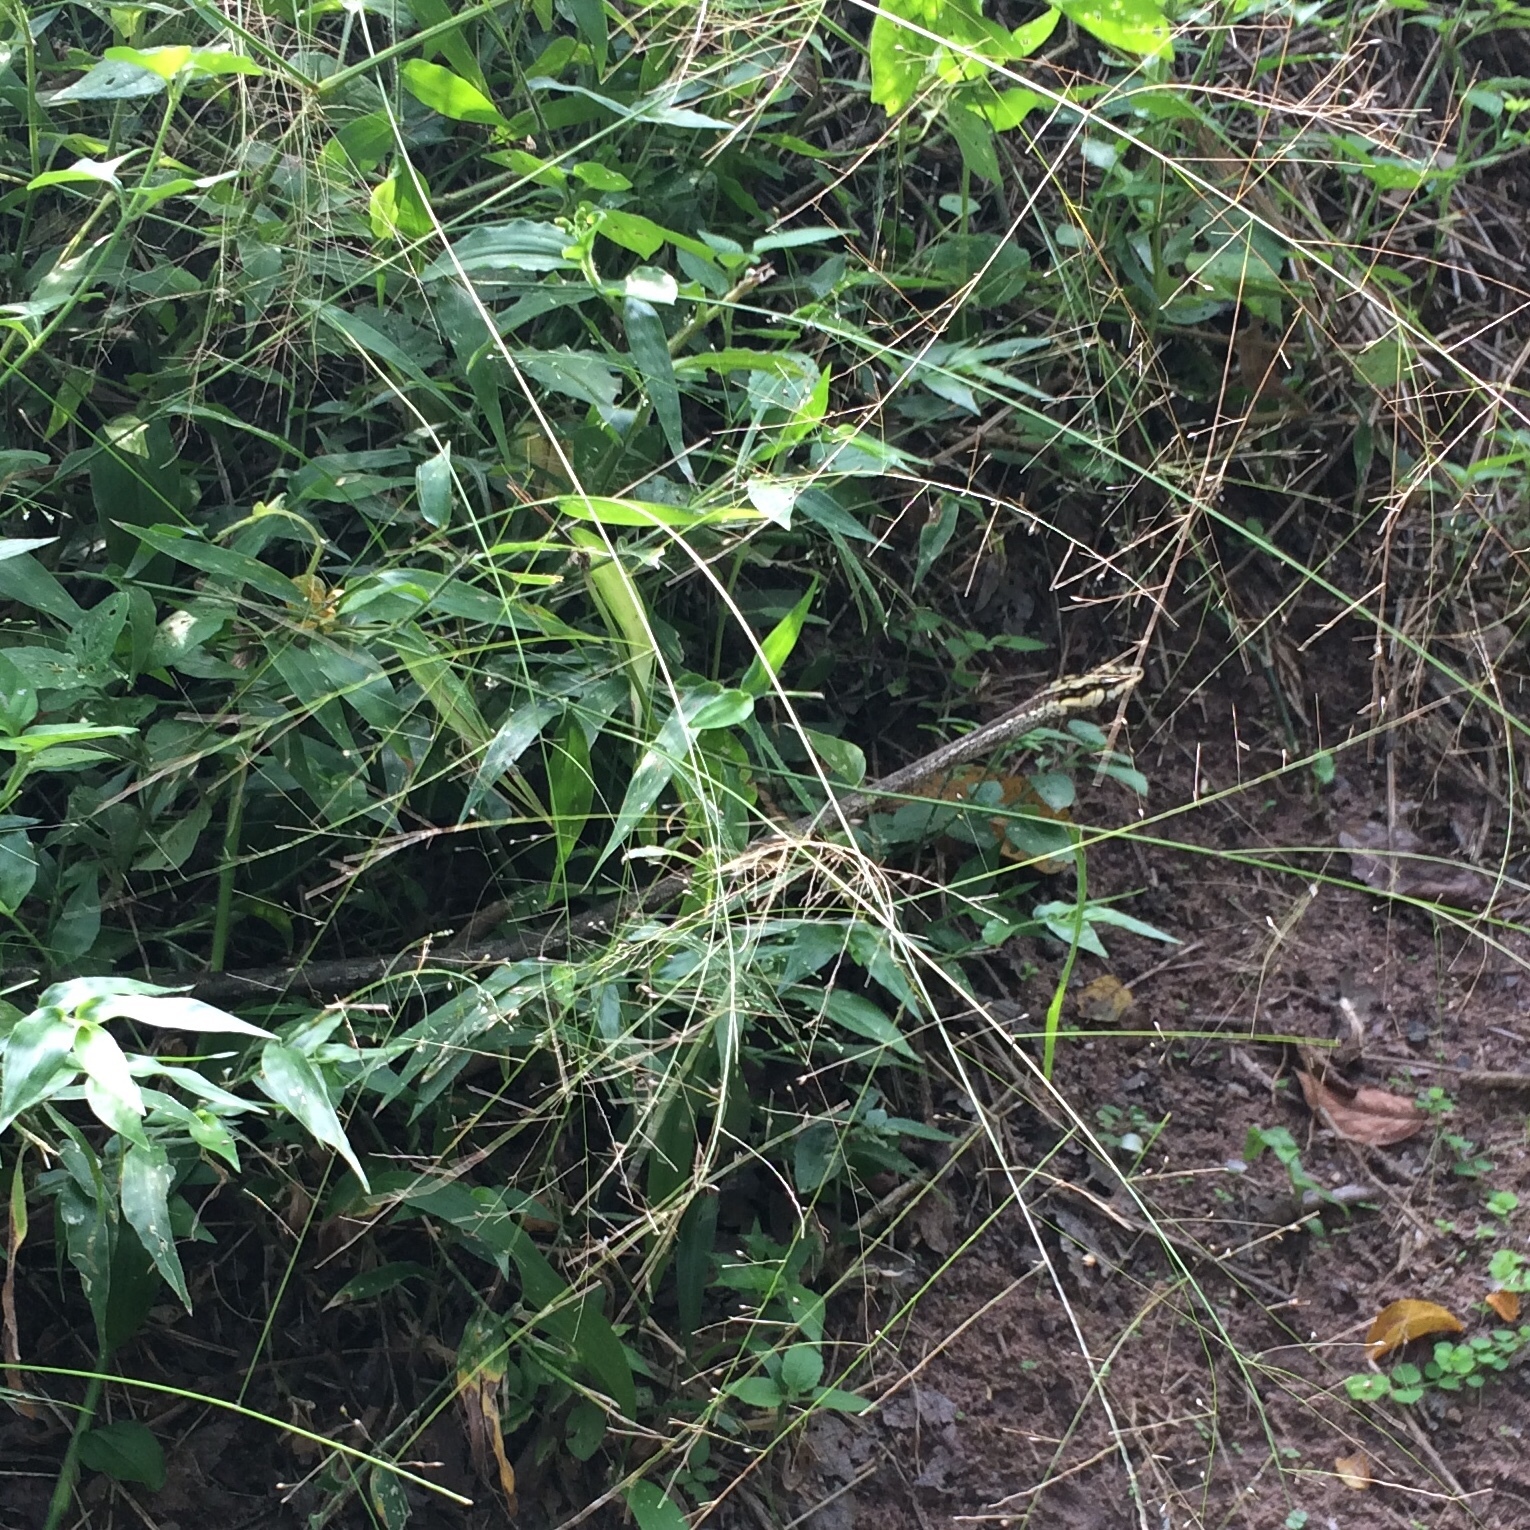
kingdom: Animalia
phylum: Chordata
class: Squamata
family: Colubridae
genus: Thelotornis
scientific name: Thelotornis capensis
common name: Savanna vine snake
